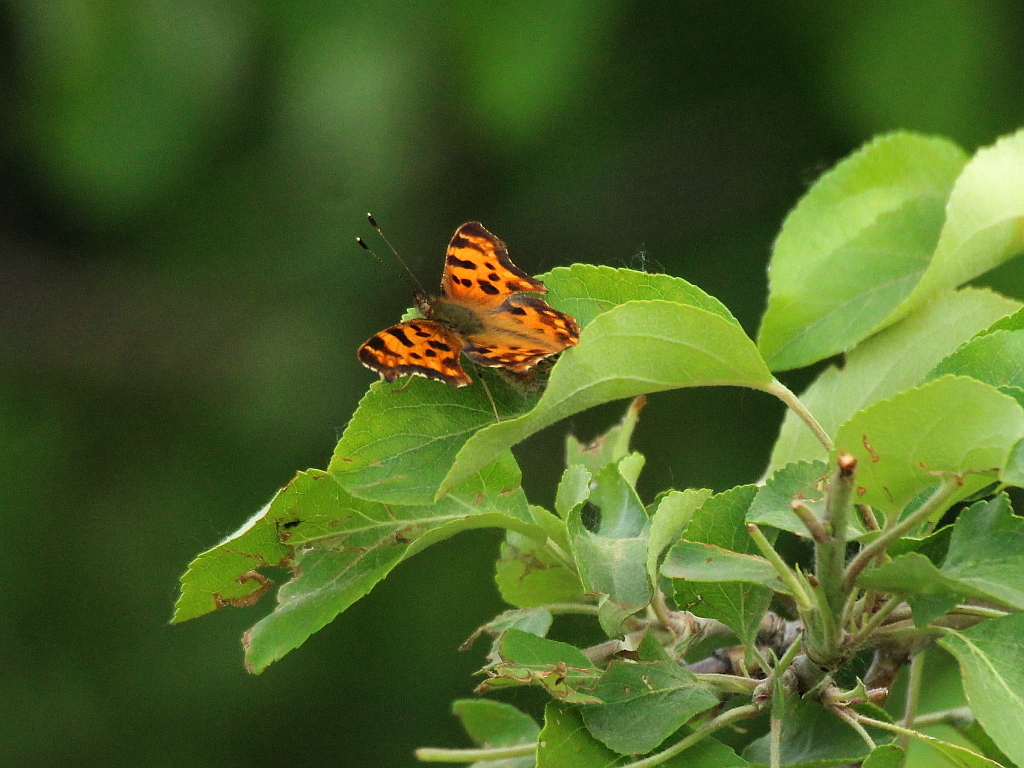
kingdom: Animalia
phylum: Arthropoda
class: Insecta
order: Lepidoptera
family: Nymphalidae
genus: Polygonia
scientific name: Polygonia c-album
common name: Comma
